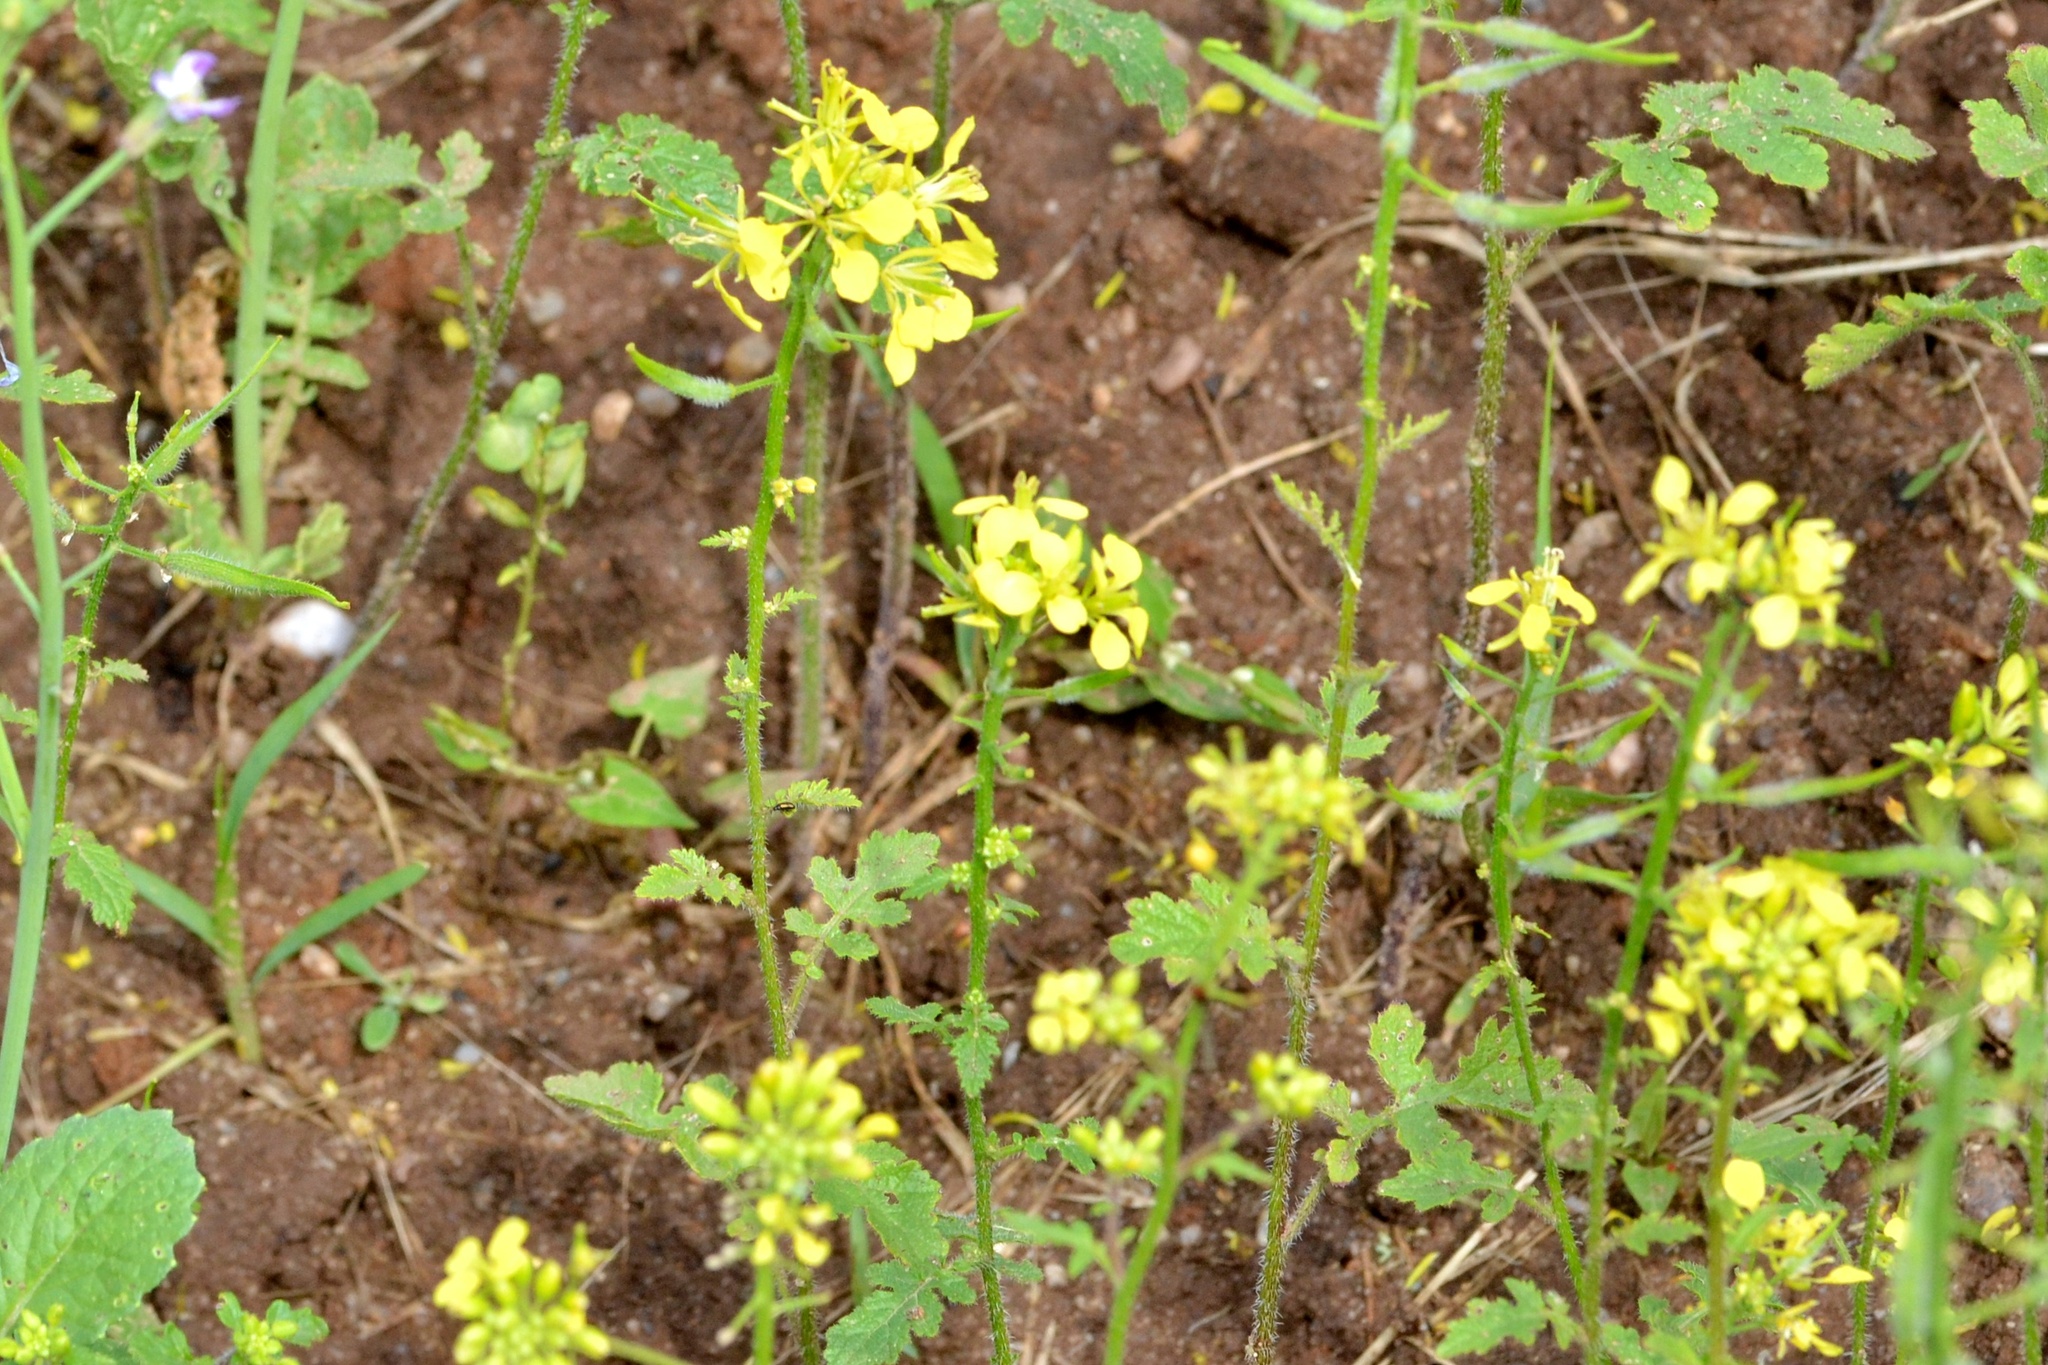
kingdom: Plantae
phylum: Tracheophyta
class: Magnoliopsida
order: Brassicales
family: Brassicaceae
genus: Sinapis
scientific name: Sinapis alba
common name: White mustard
